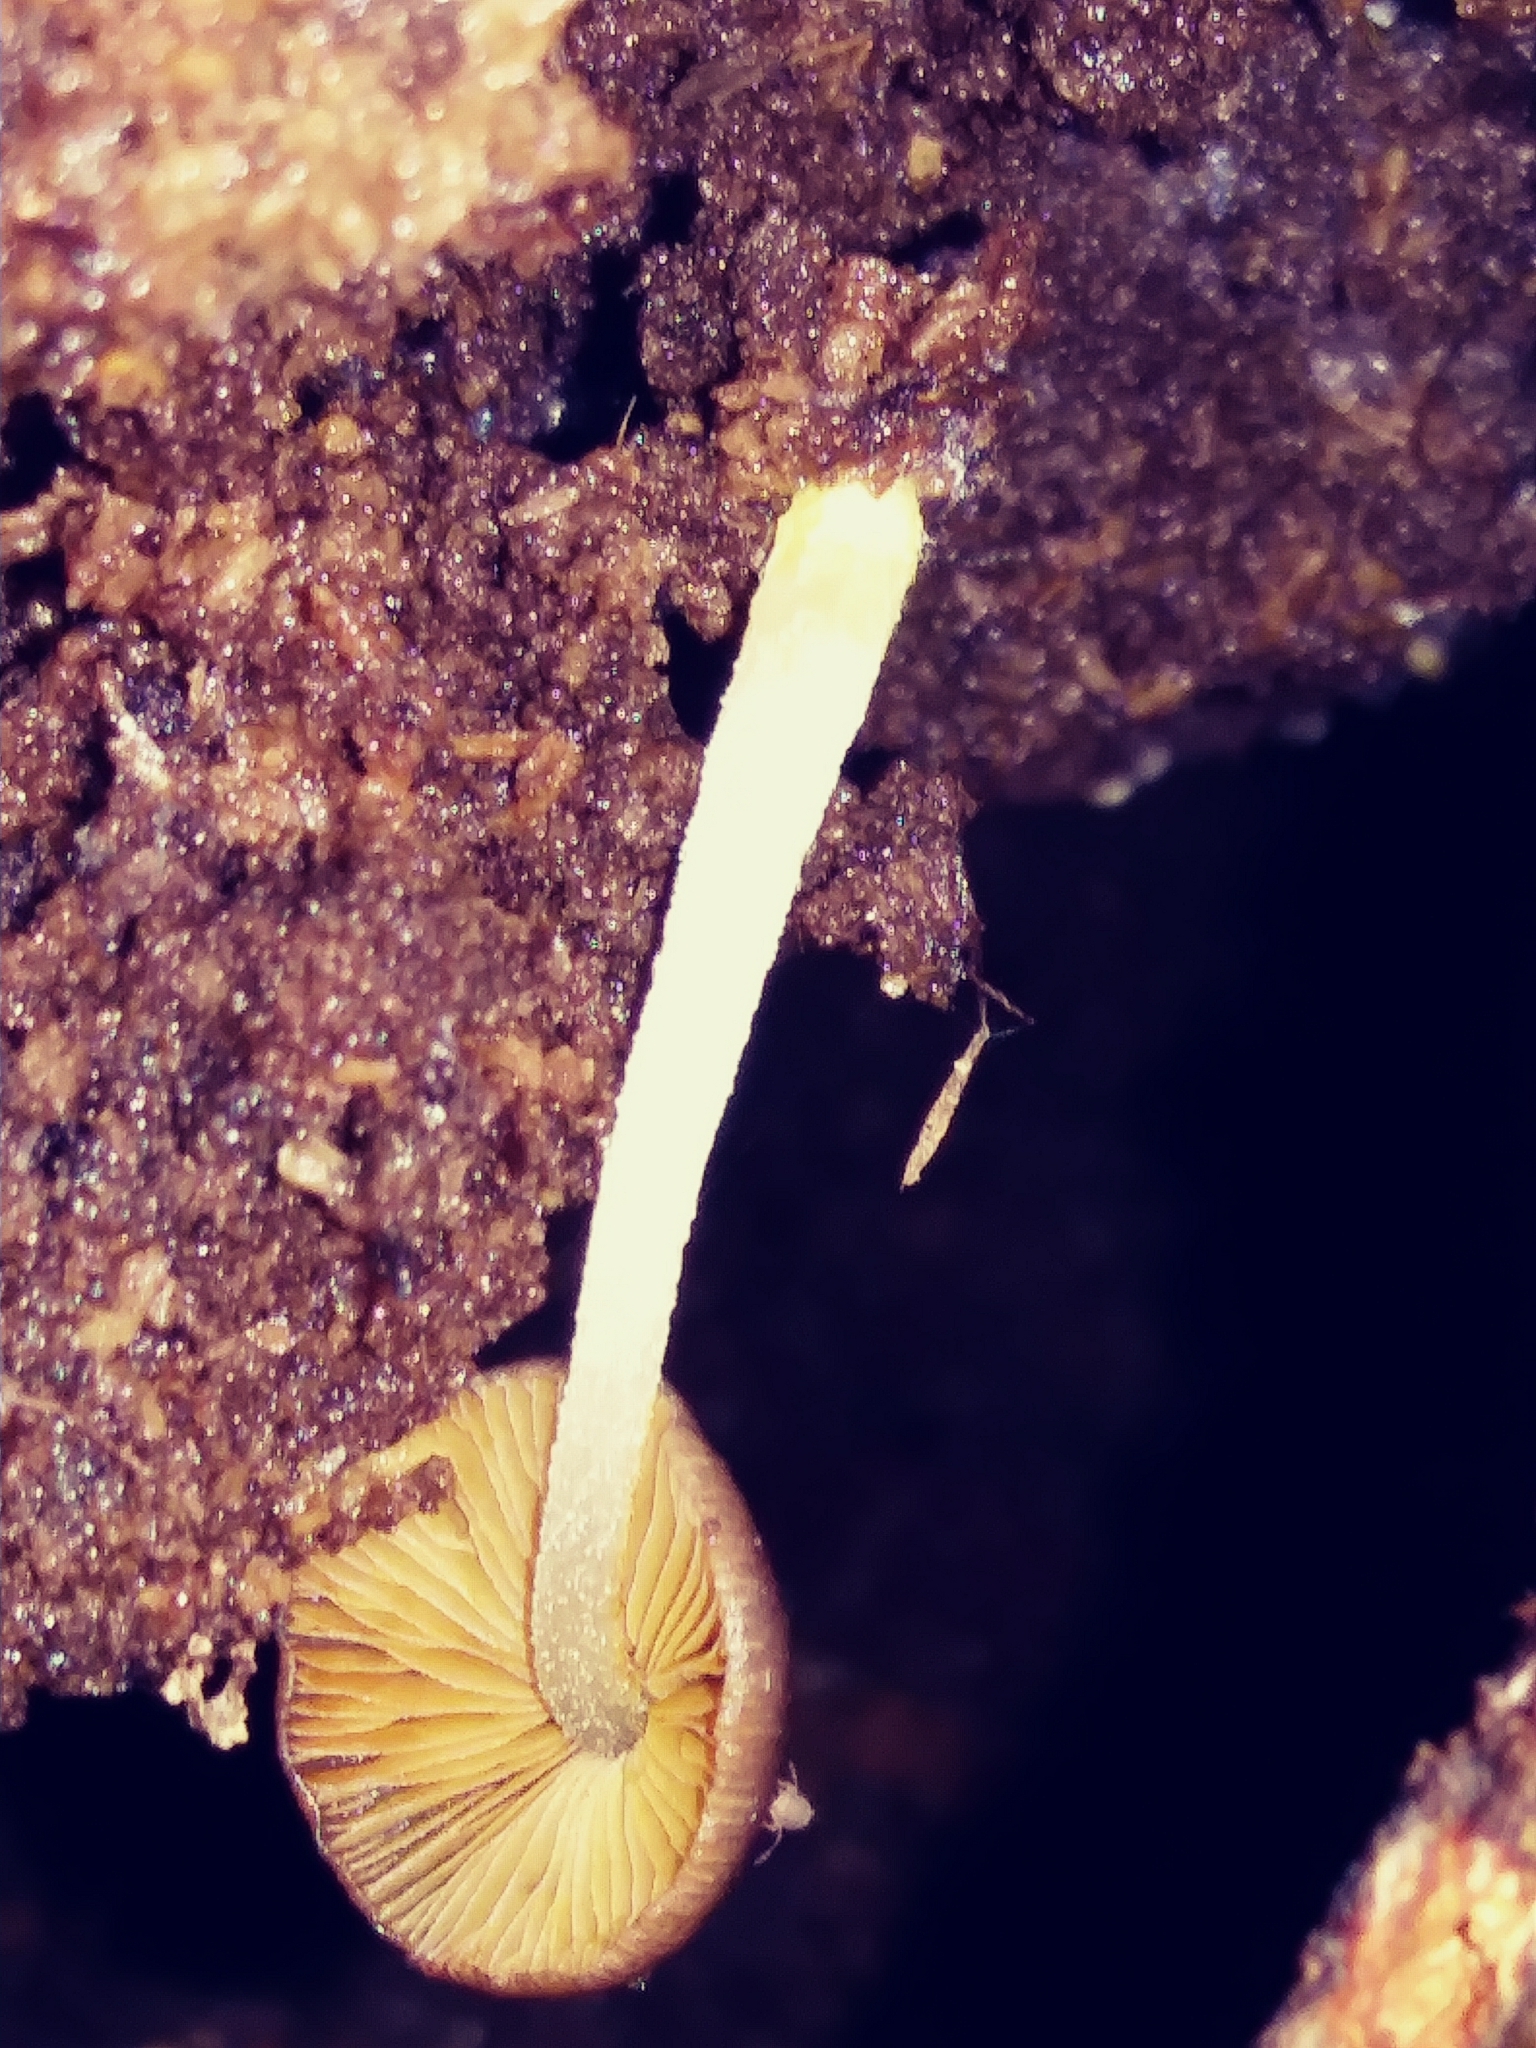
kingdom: Fungi
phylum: Basidiomycota
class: Agaricomycetes
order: Agaricales
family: Physalacriaceae
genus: Hymenopellis
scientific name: Hymenopellis furfuracea
